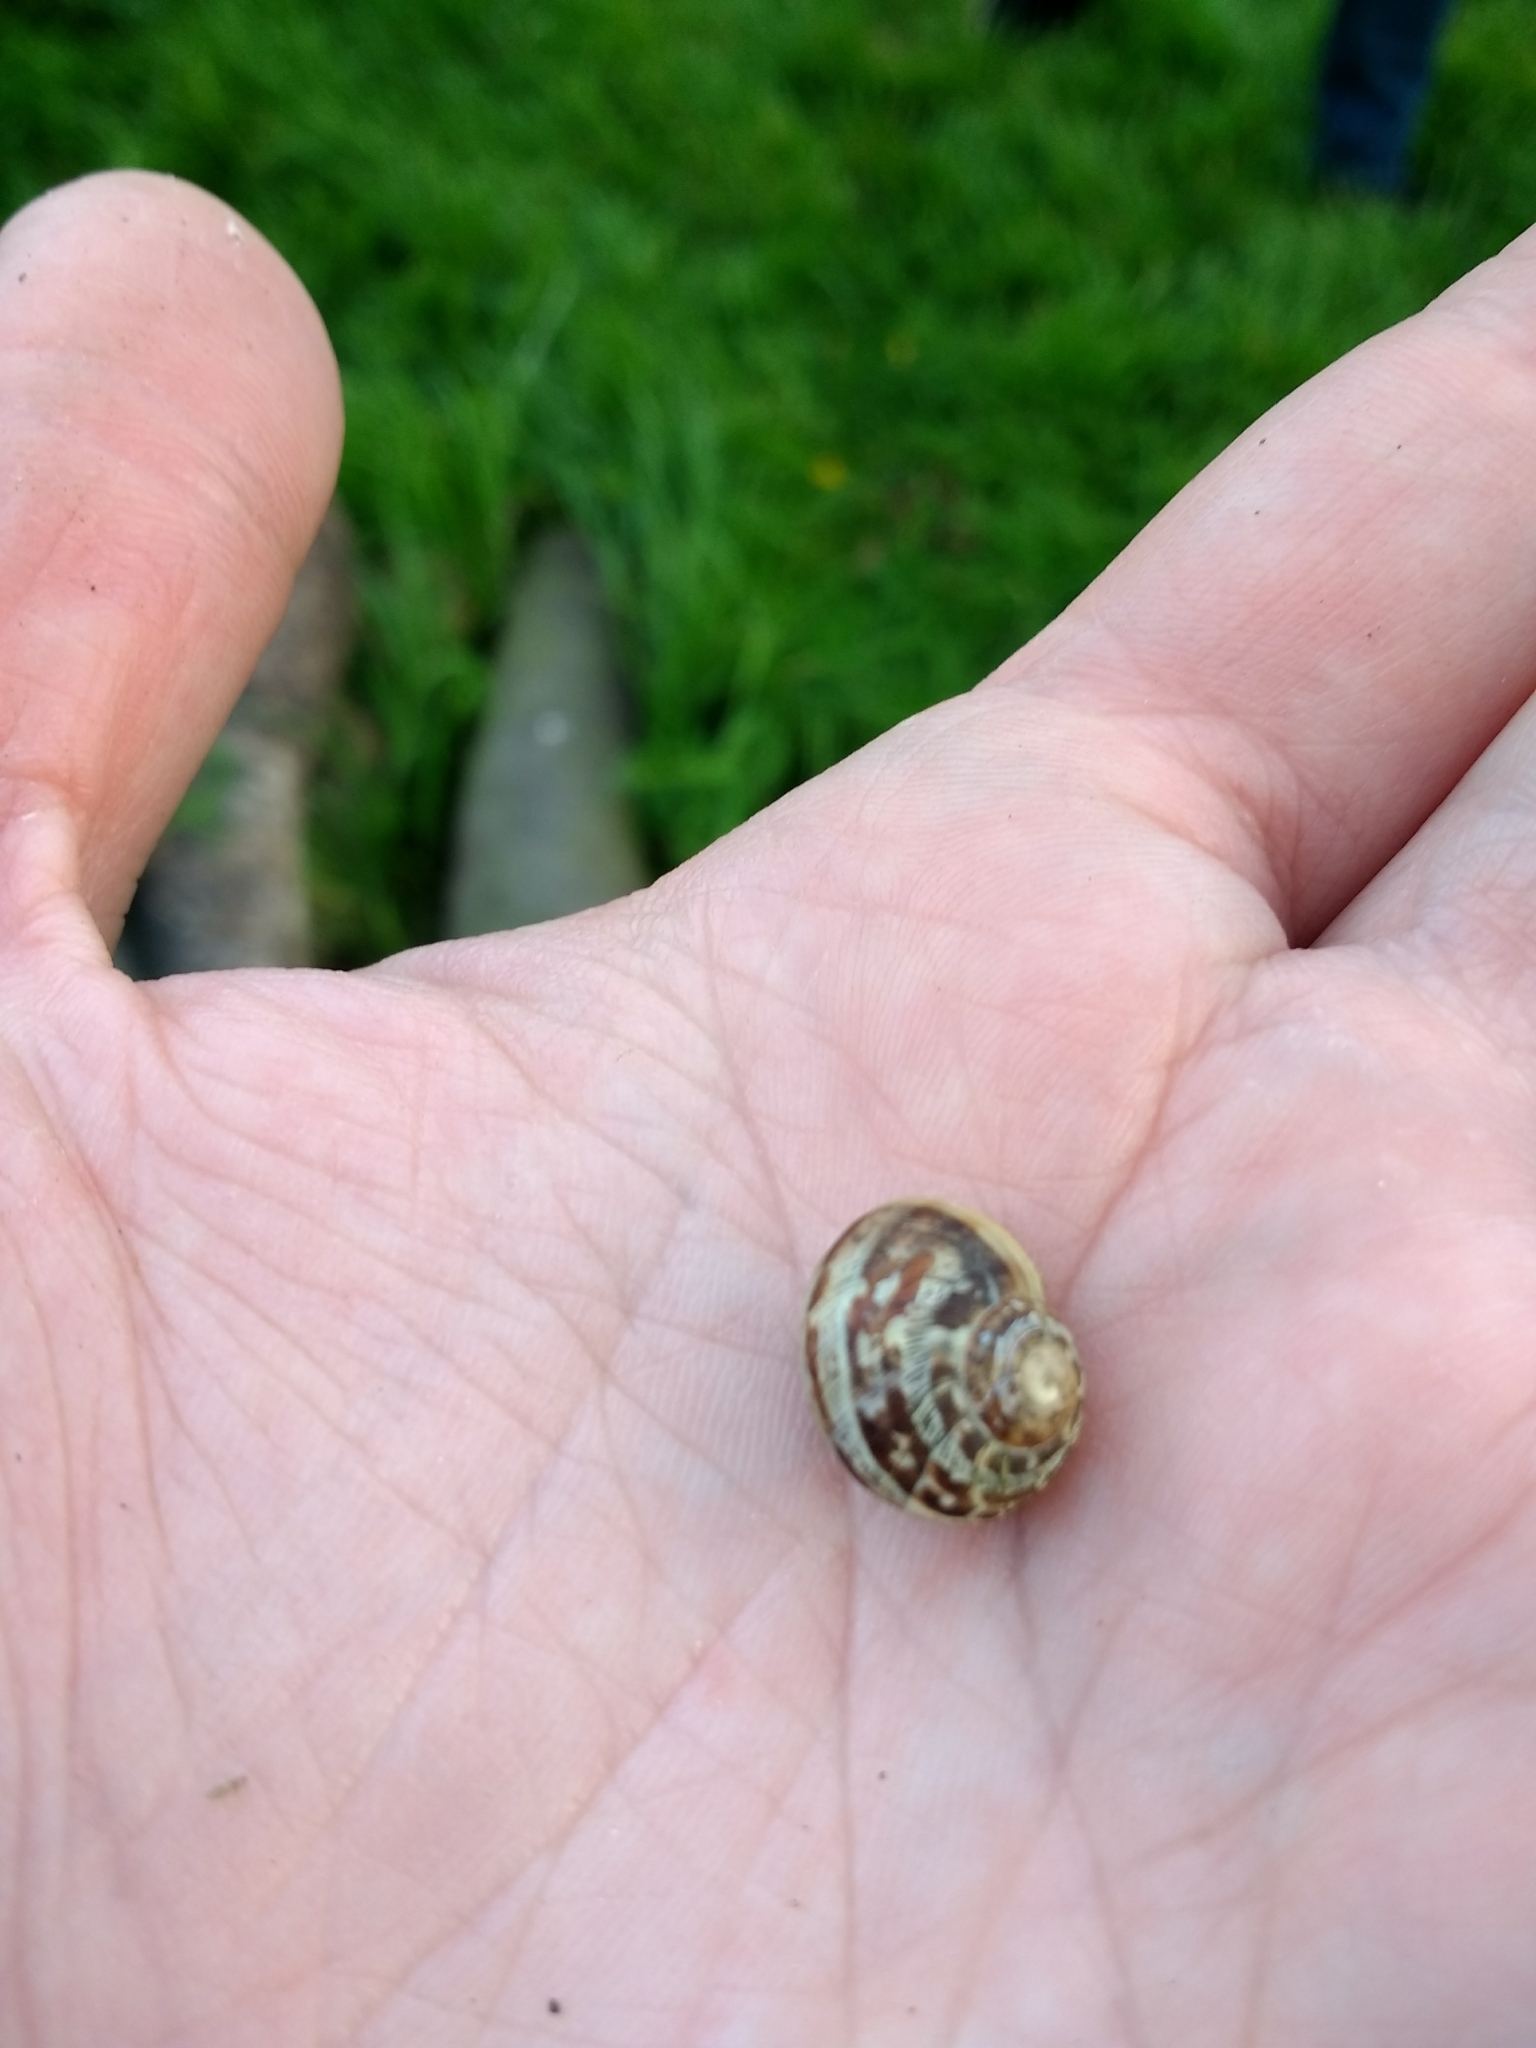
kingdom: Animalia
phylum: Mollusca
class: Gastropoda
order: Stylommatophora
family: Helicidae
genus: Cornu
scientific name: Cornu aspersum
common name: Brown garden snail
